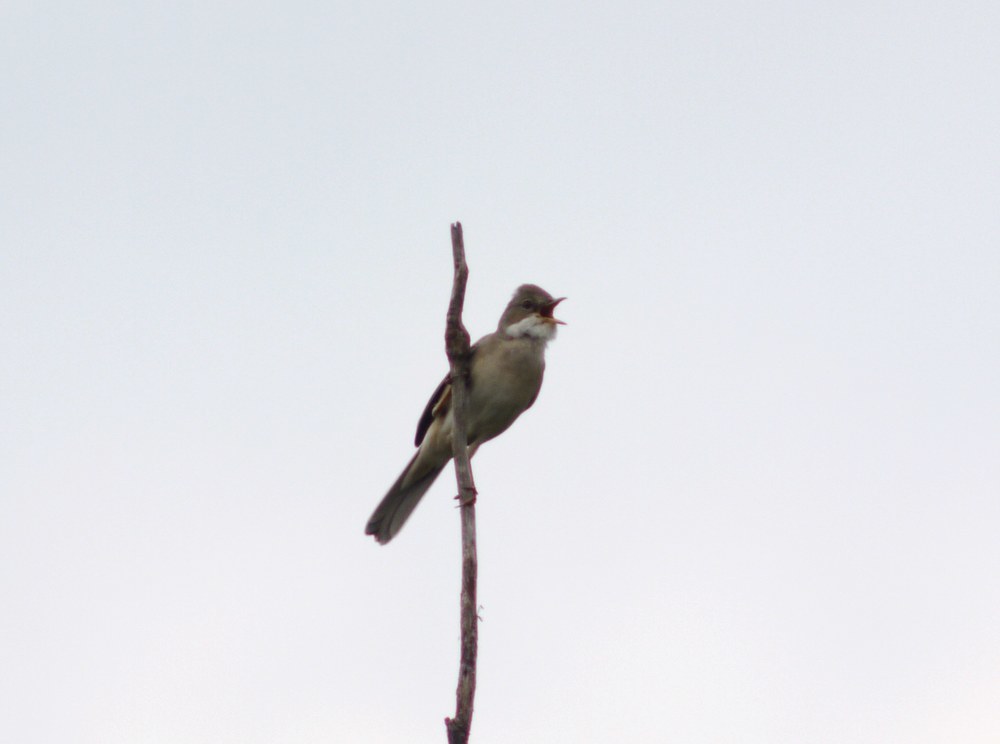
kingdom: Animalia
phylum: Chordata
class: Aves
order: Passeriformes
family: Sylviidae
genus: Sylvia
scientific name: Sylvia communis
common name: Common whitethroat
